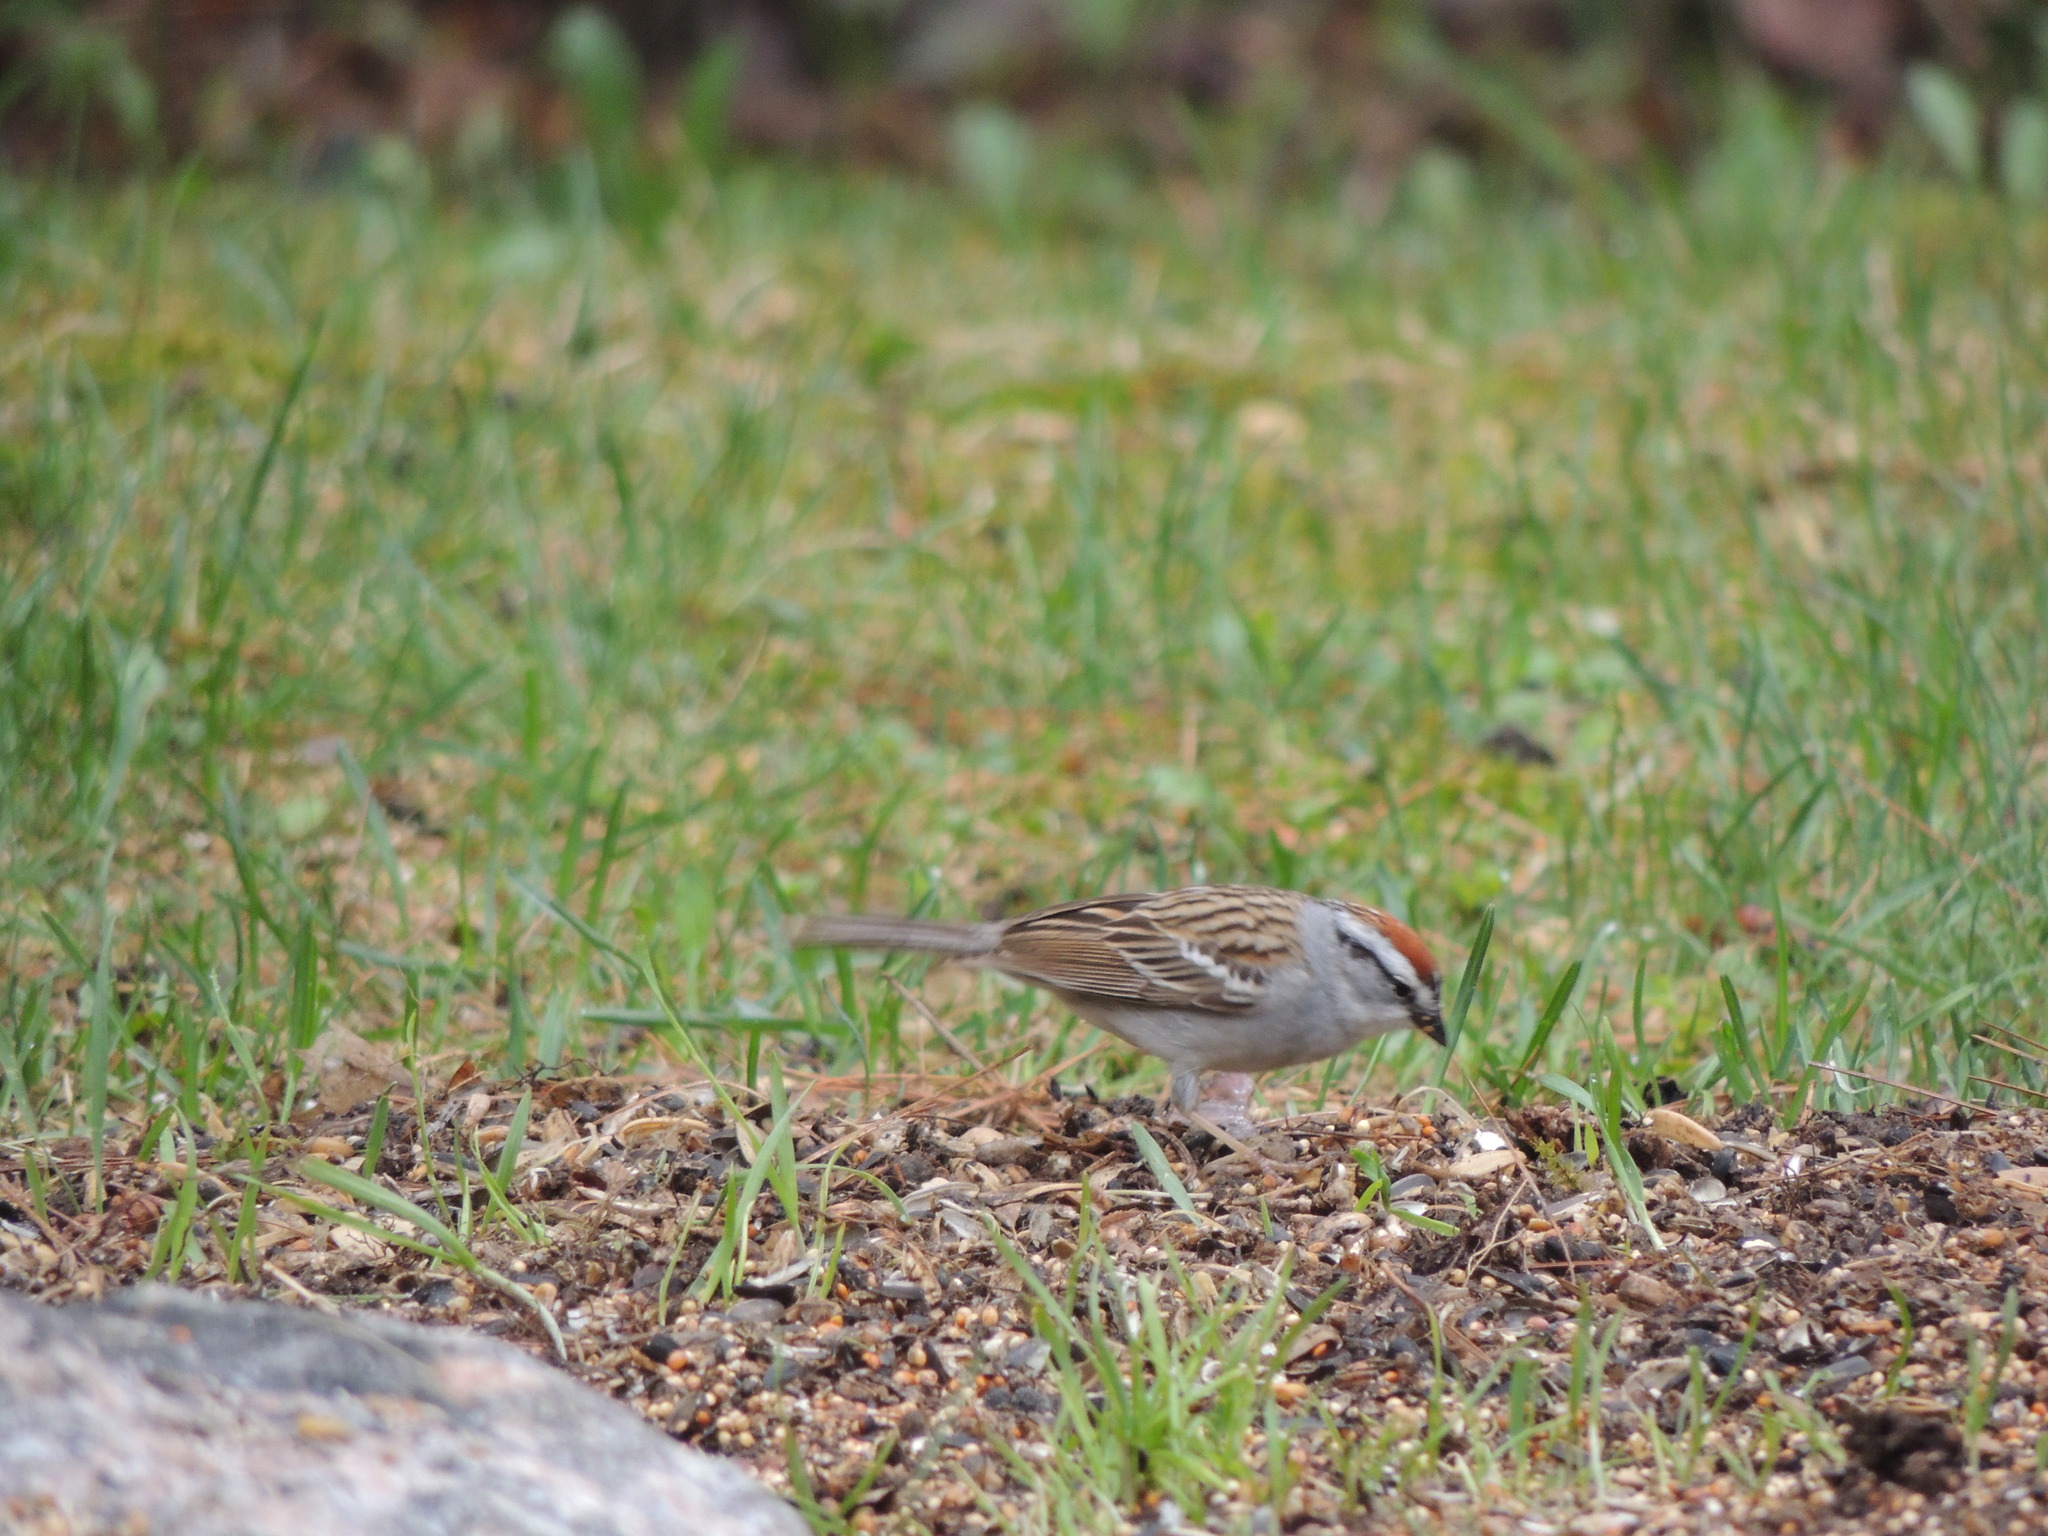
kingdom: Animalia
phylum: Chordata
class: Aves
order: Passeriformes
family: Passerellidae
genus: Spizella
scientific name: Spizella passerina
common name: Chipping sparrow
